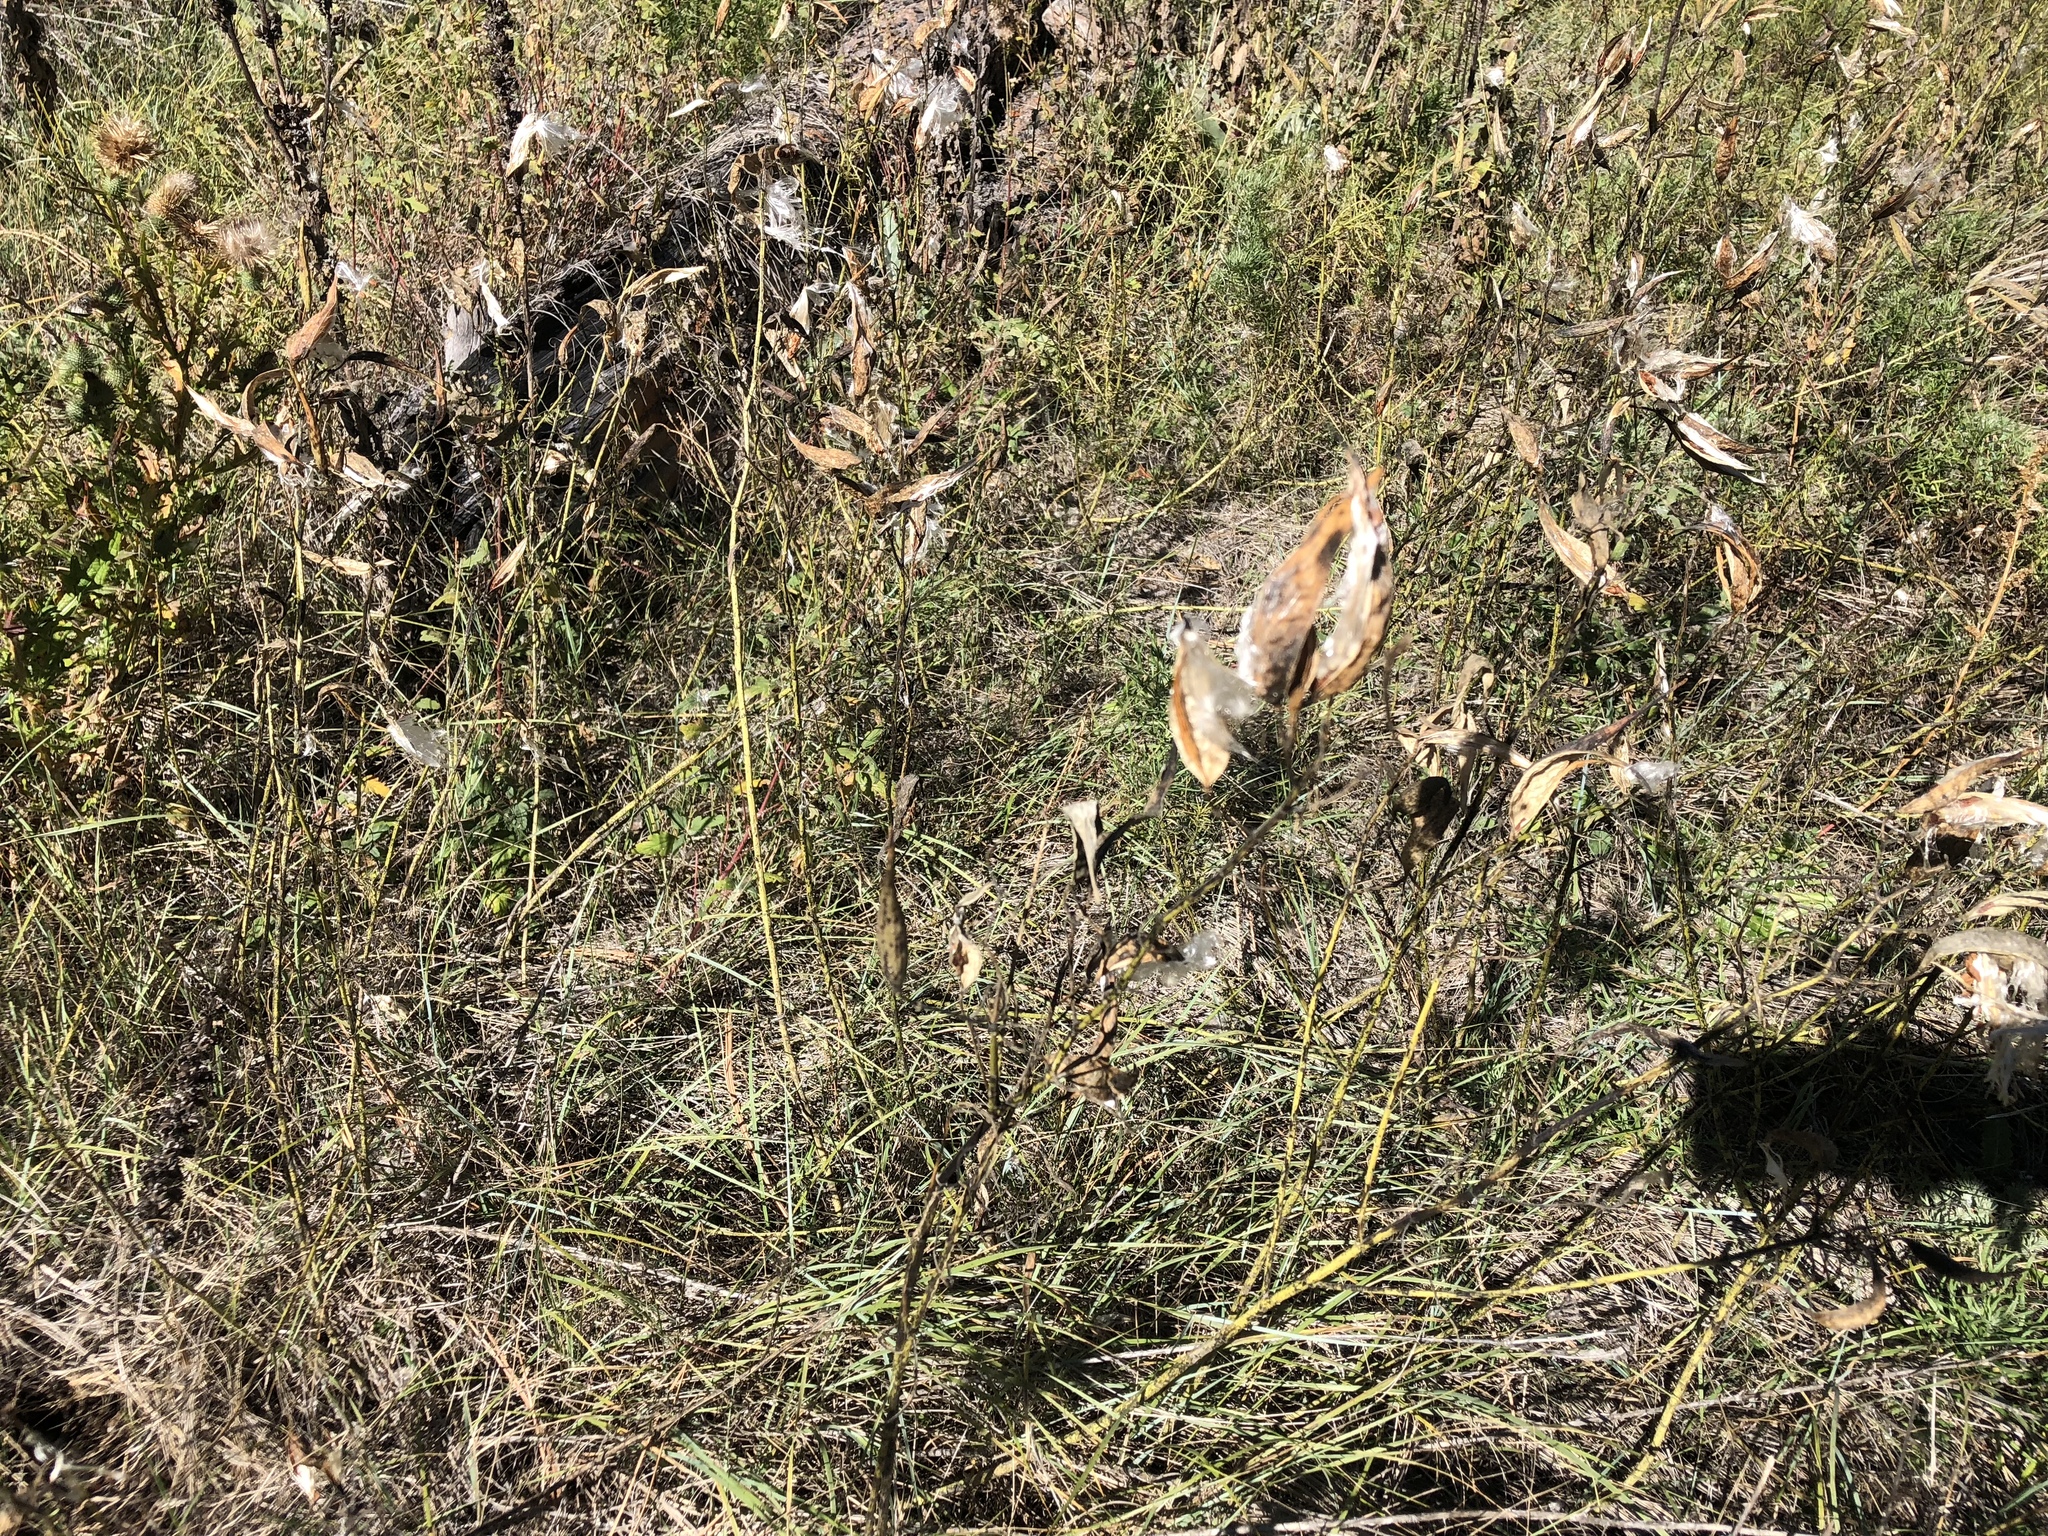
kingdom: Plantae
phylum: Tracheophyta
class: Magnoliopsida
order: Gentianales
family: Apocynaceae
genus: Asclepias
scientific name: Asclepias subverticillata
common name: Horsetail milkweed
